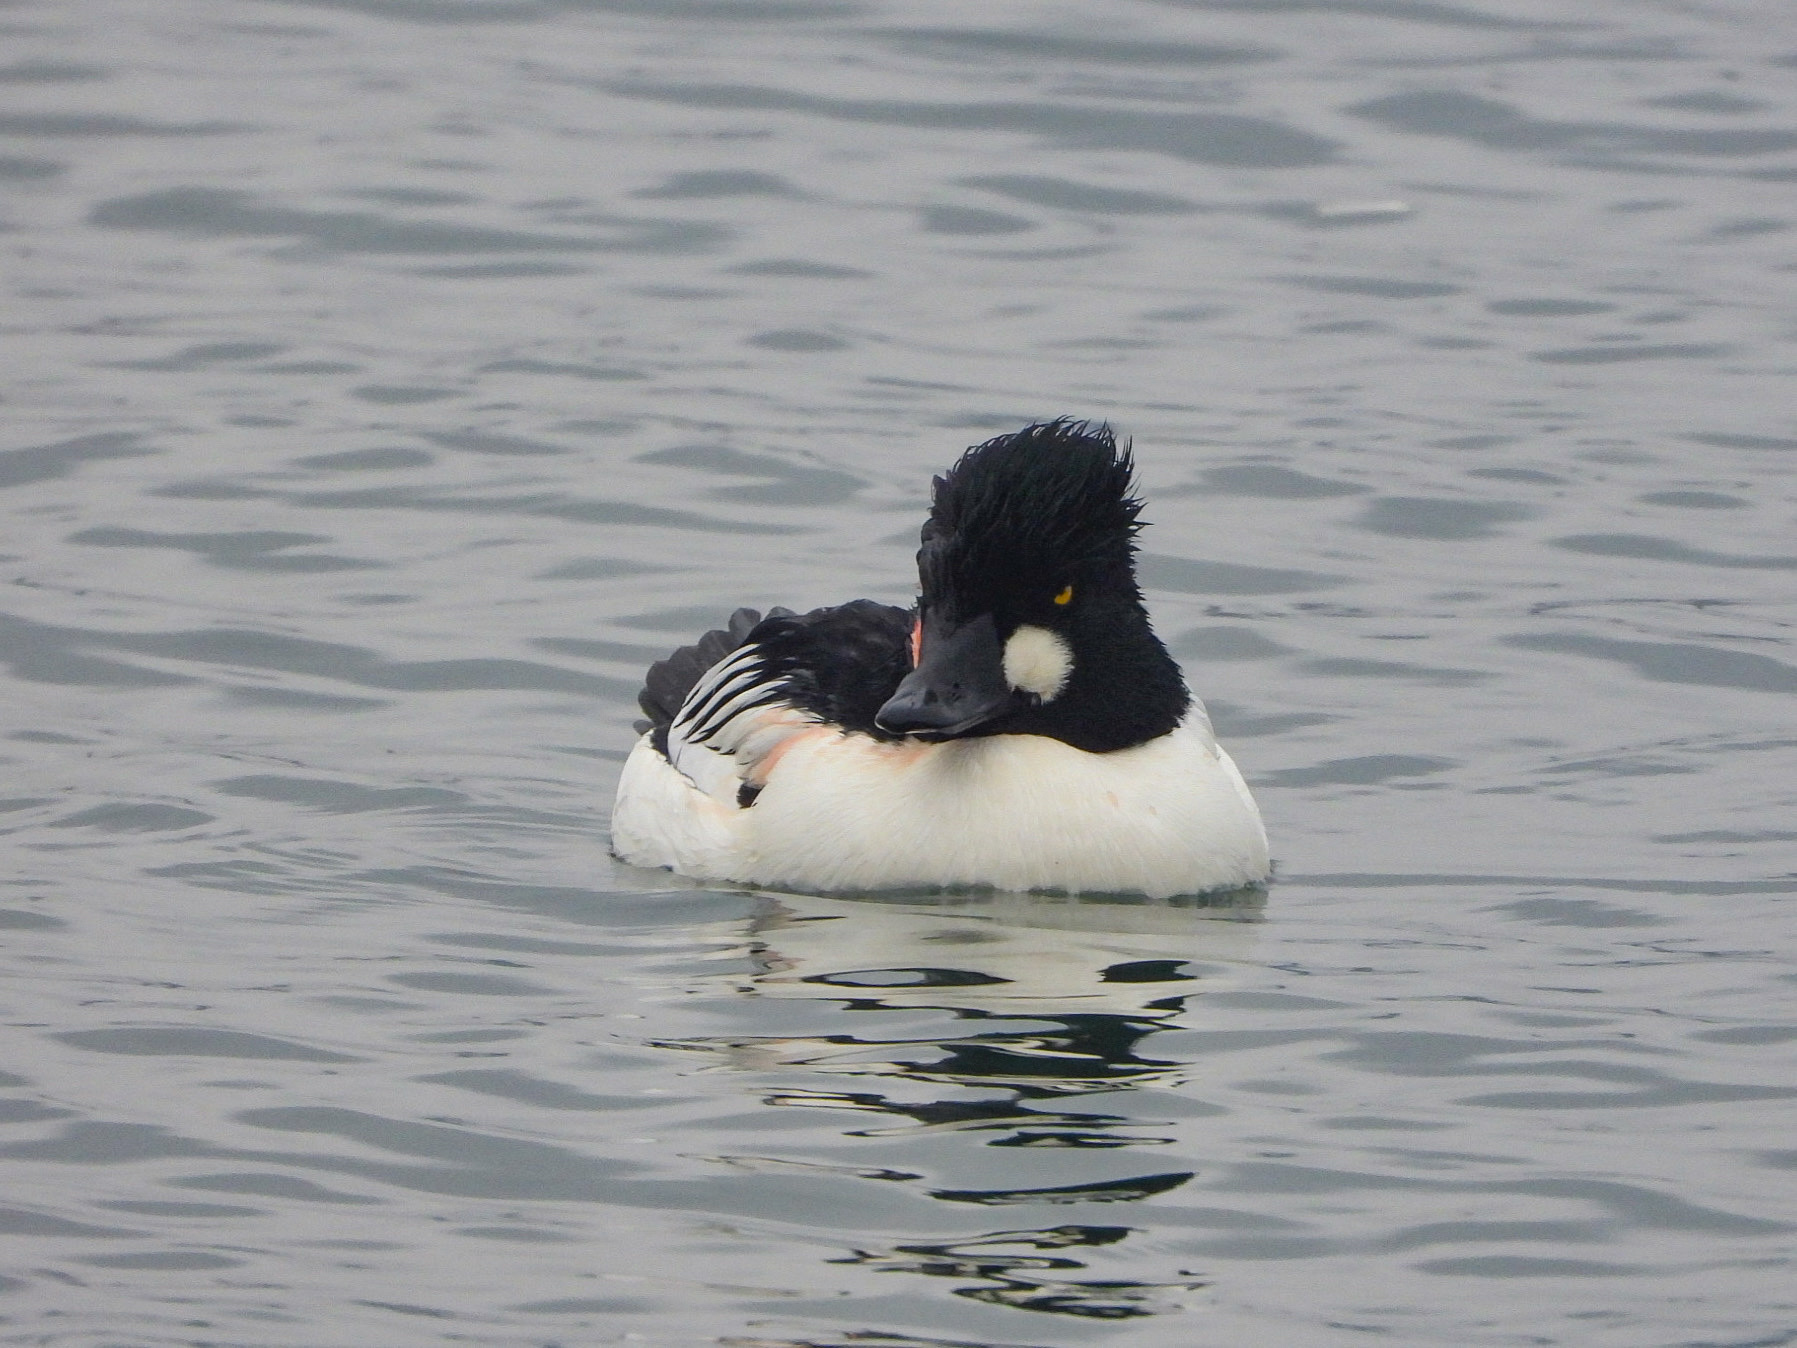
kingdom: Animalia
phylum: Chordata
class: Aves
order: Anseriformes
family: Anatidae
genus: Bucephala
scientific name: Bucephala clangula
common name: Common goldeneye
